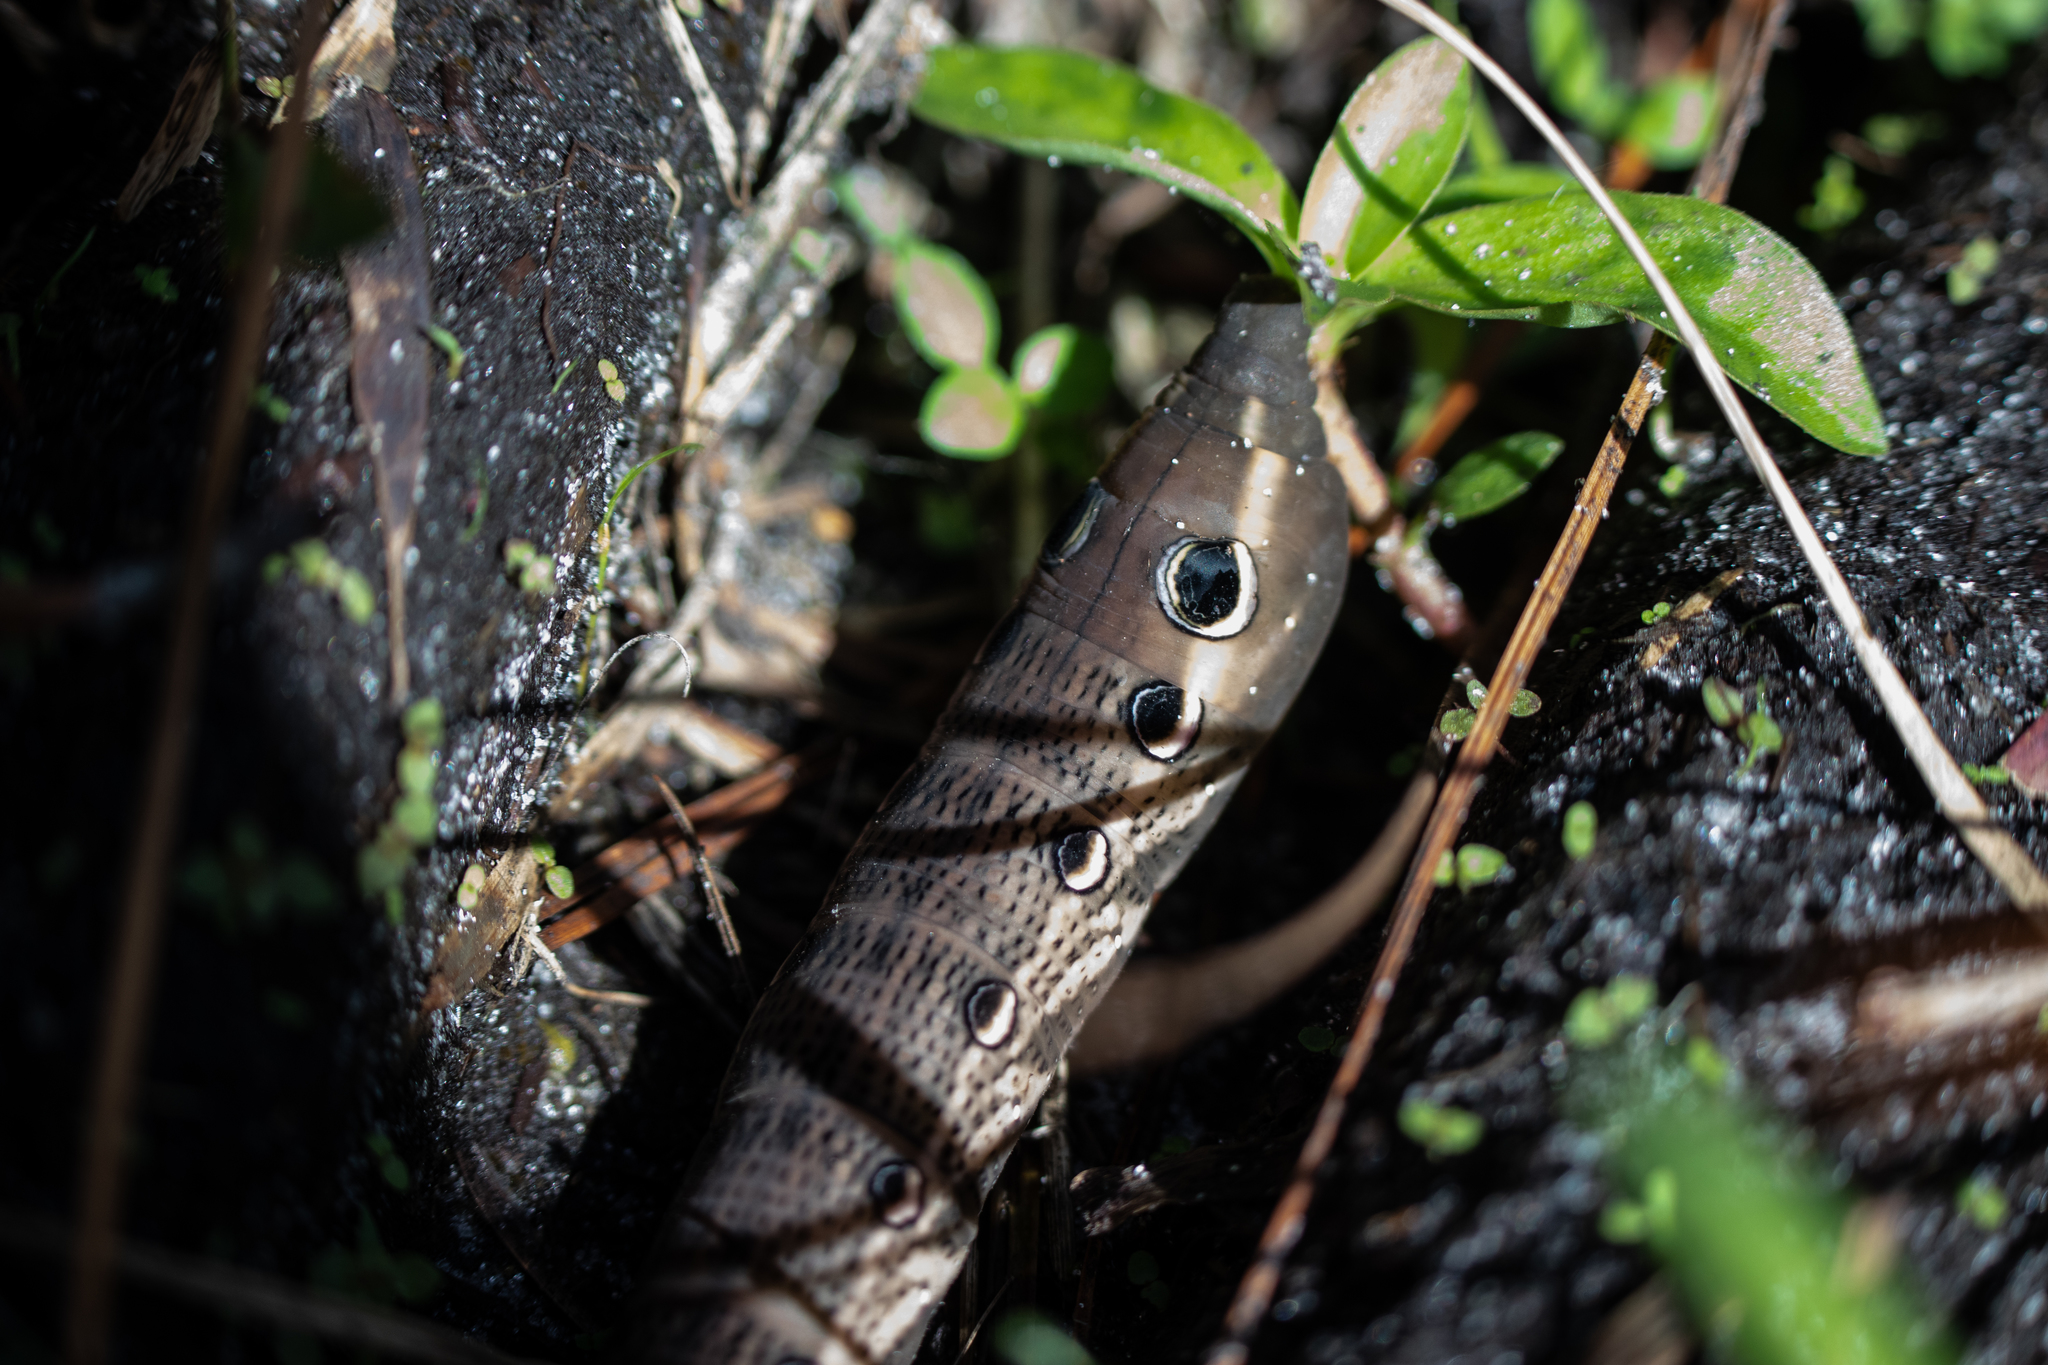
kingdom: Animalia
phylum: Arthropoda
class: Insecta
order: Lepidoptera
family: Sphingidae
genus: Xylophanes
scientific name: Xylophanes tersa
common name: Tersa sphinx
